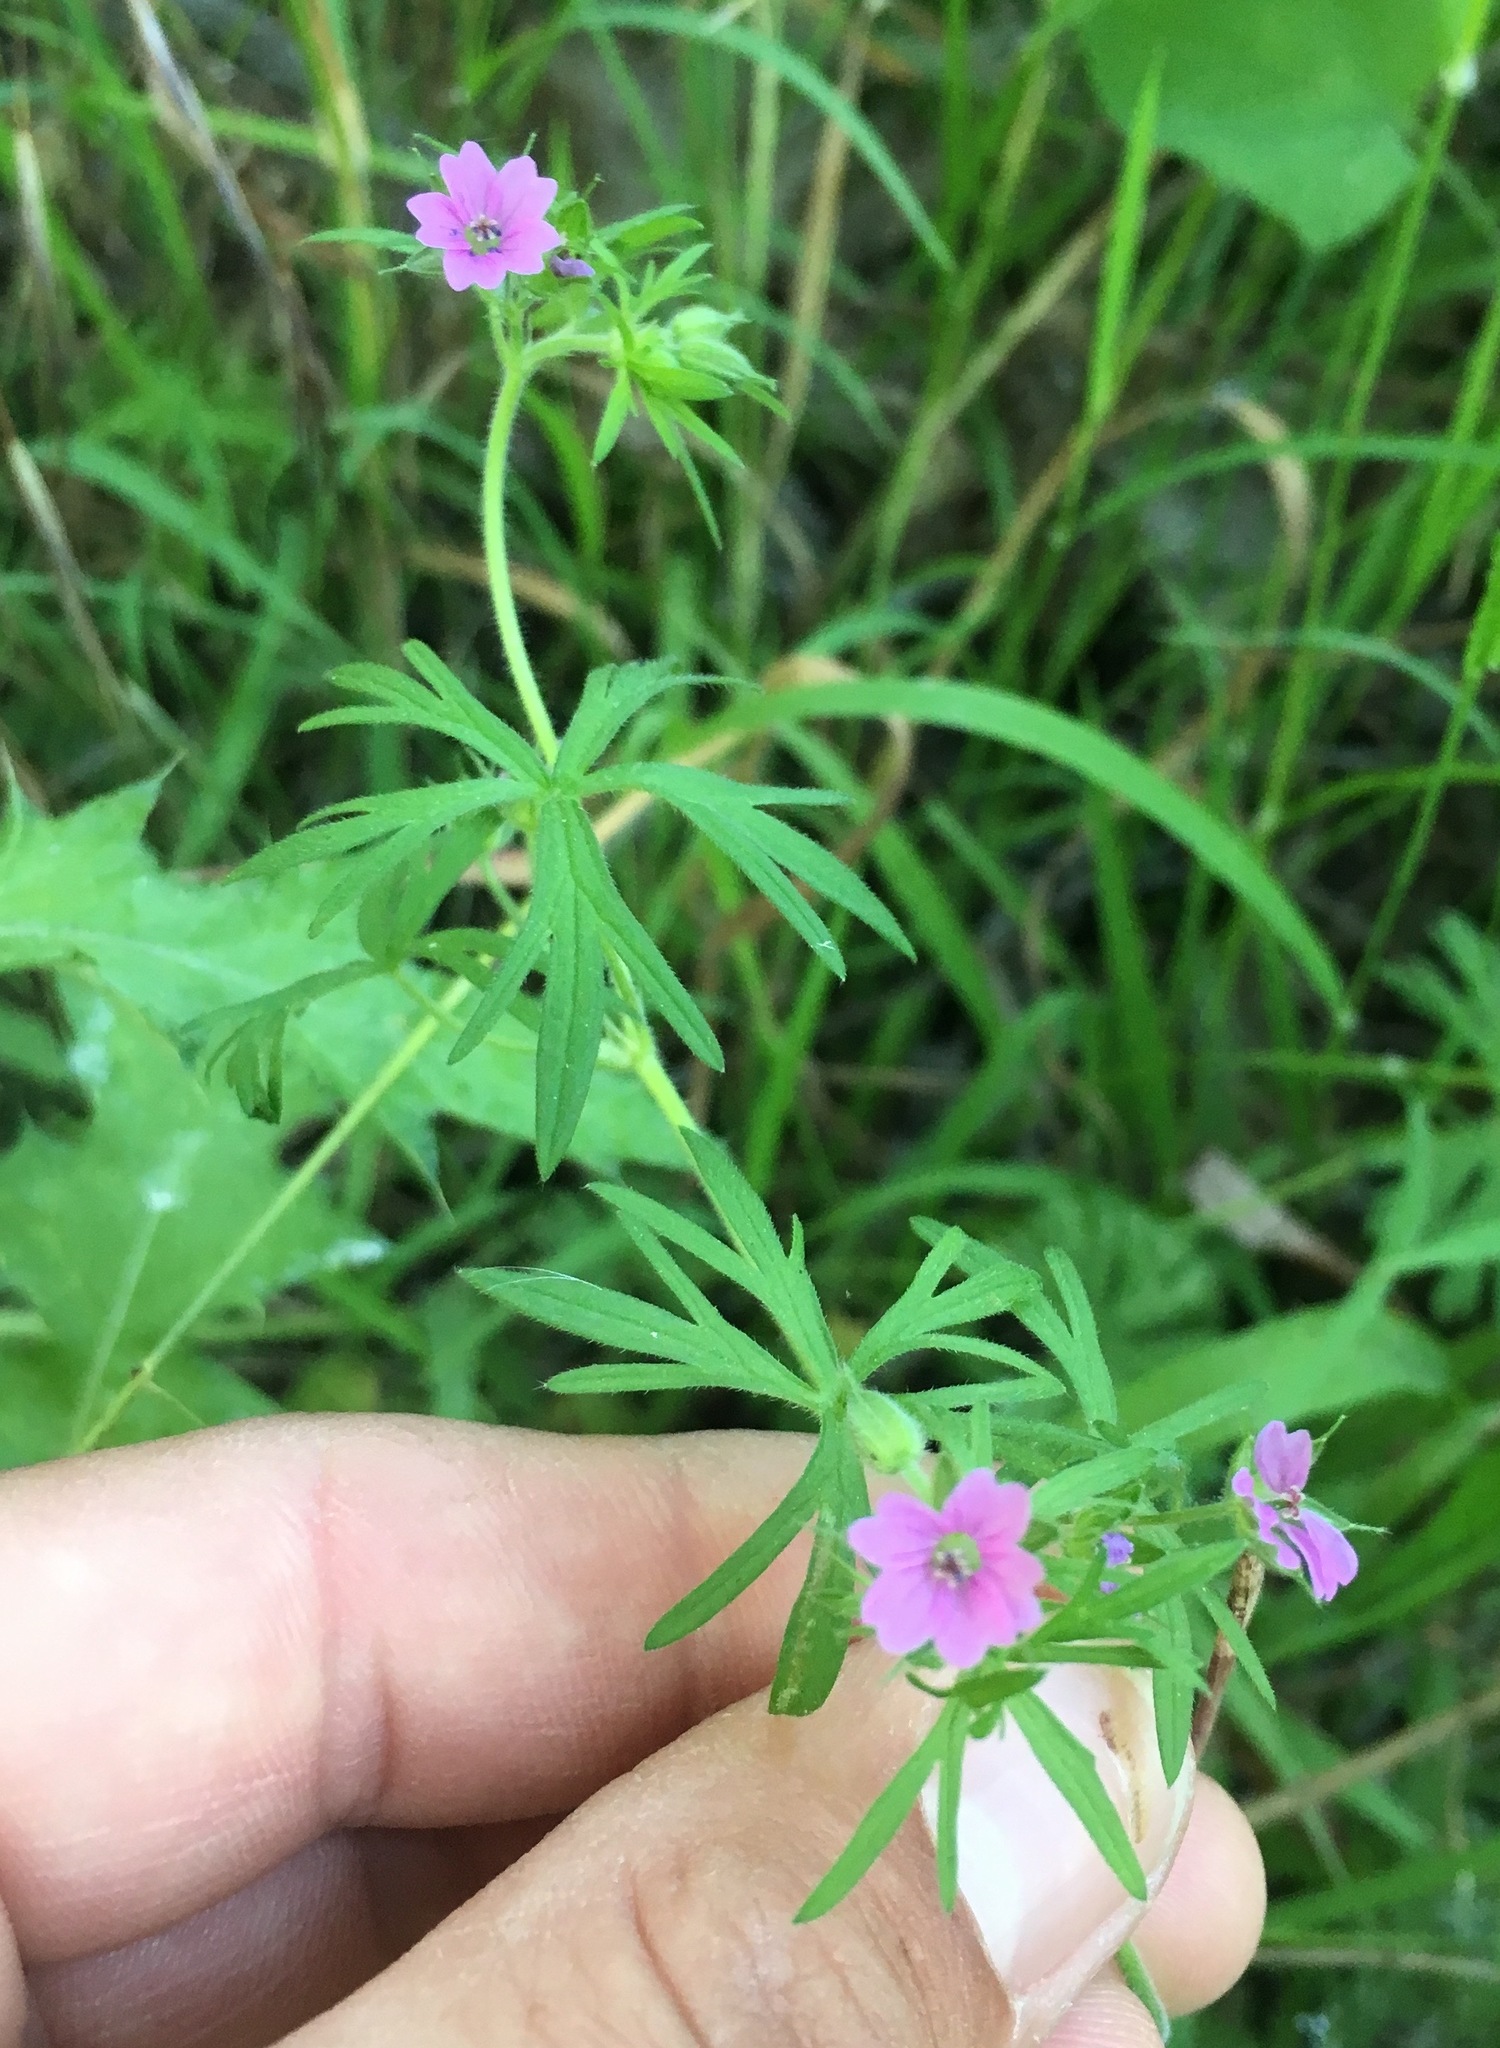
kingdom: Plantae
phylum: Tracheophyta
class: Magnoliopsida
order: Geraniales
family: Geraniaceae
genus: Geranium
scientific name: Geranium dissectum
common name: Cut-leaved crane's-bill
